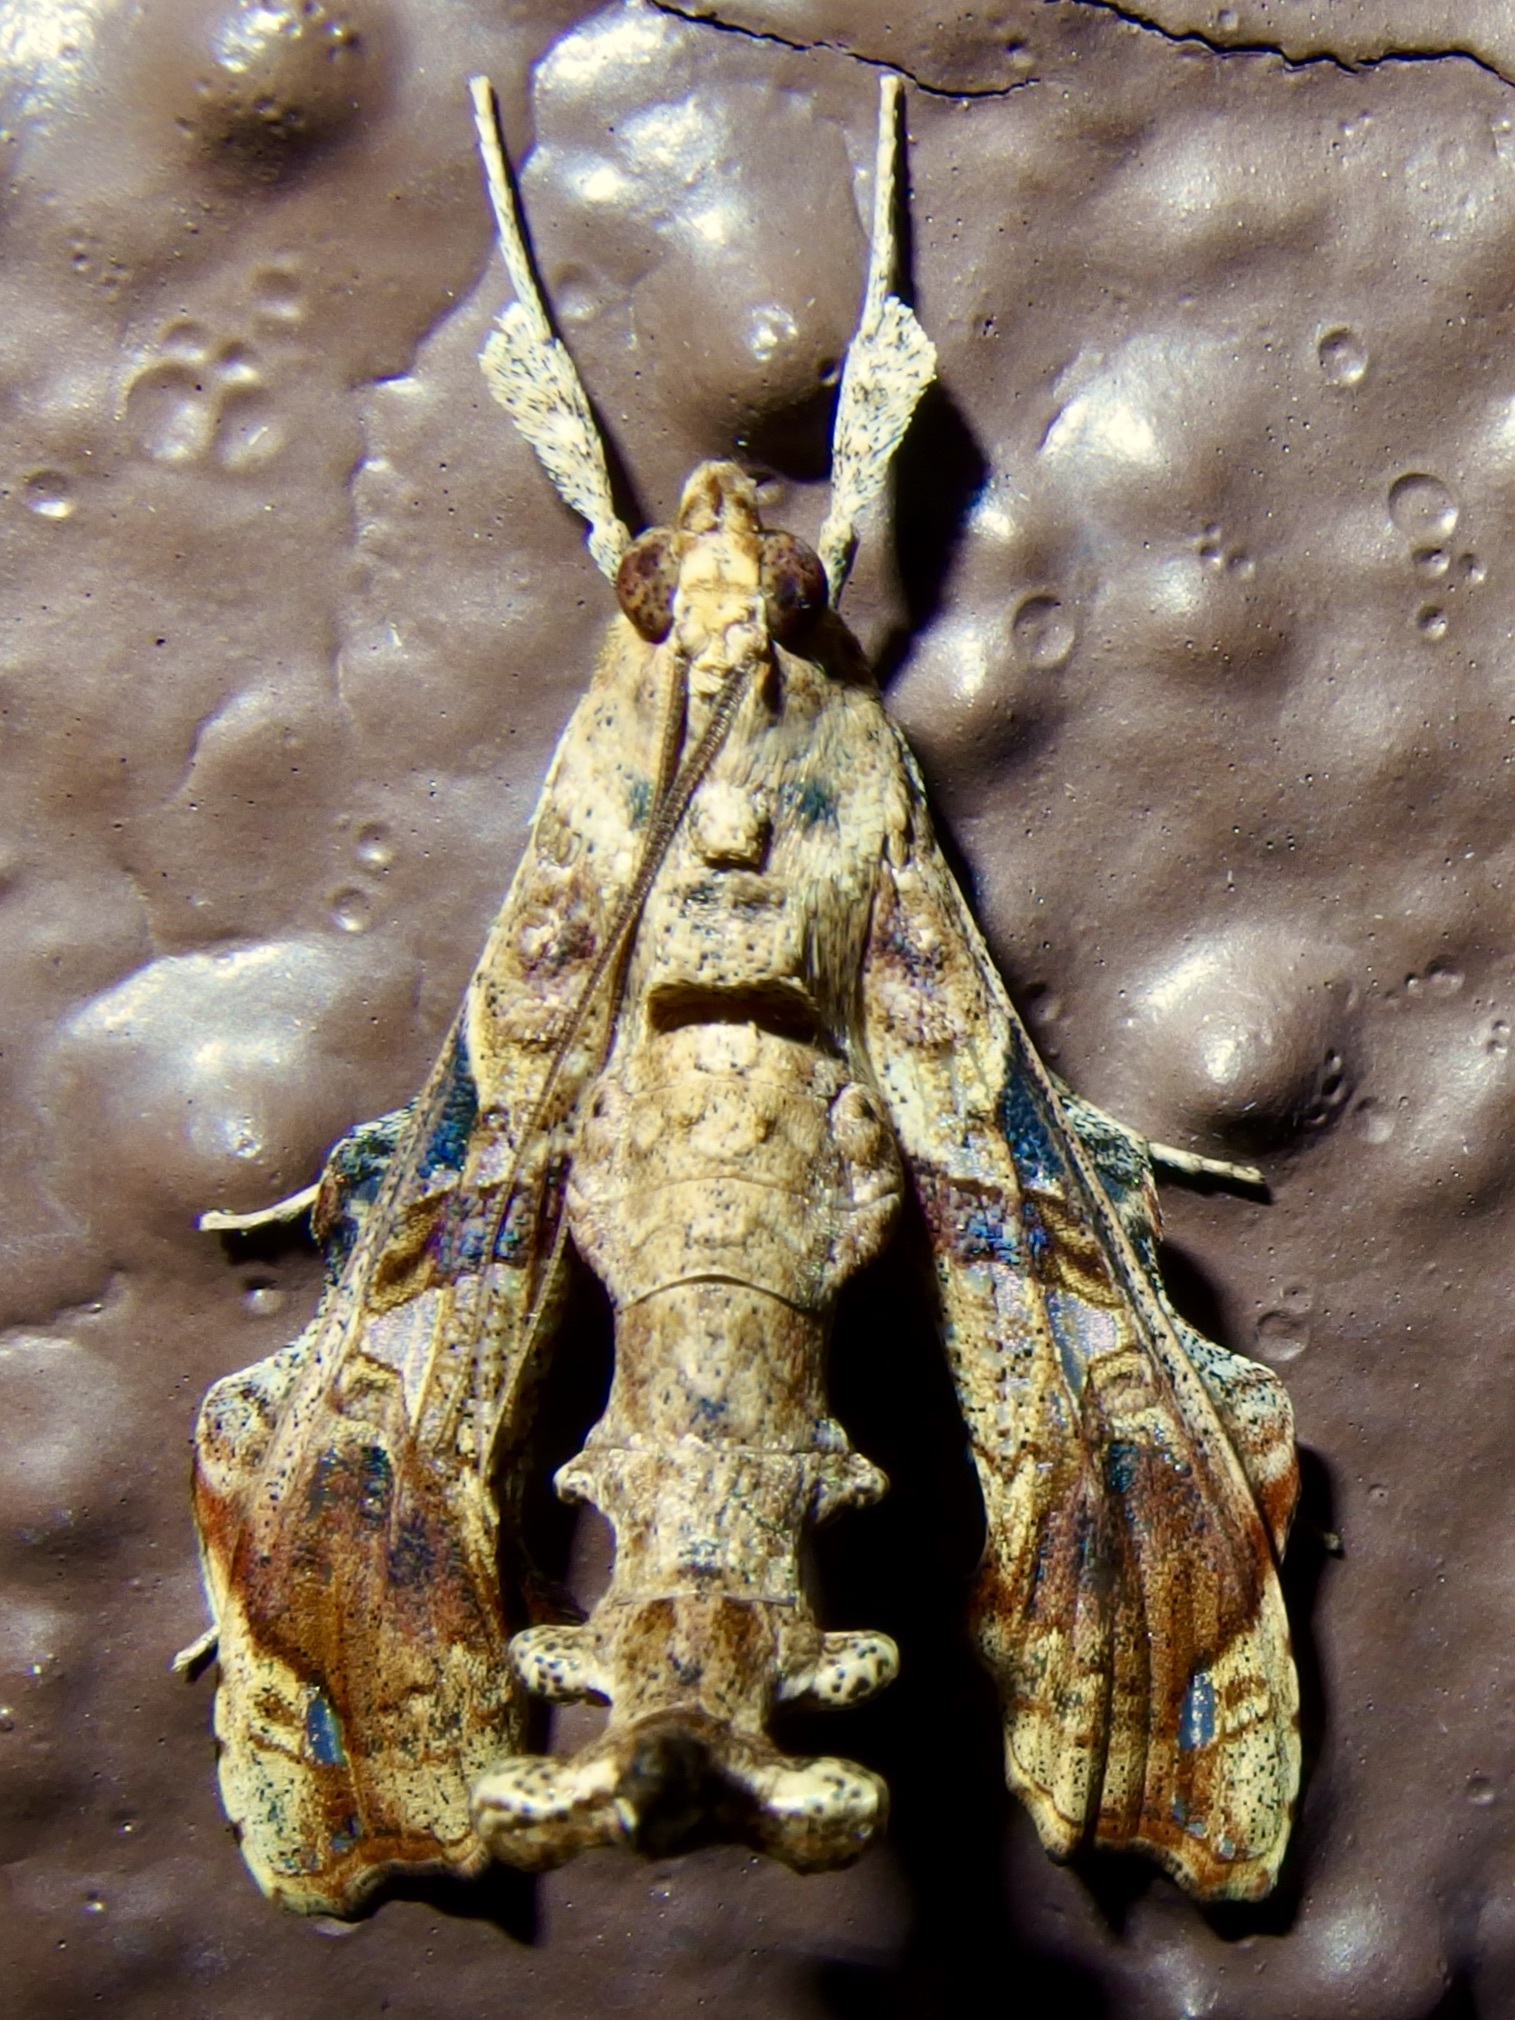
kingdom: Animalia
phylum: Arthropoda
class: Insecta
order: Lepidoptera
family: Crambidae
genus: Terastia
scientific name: Terastia meticulosalis
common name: Moth
